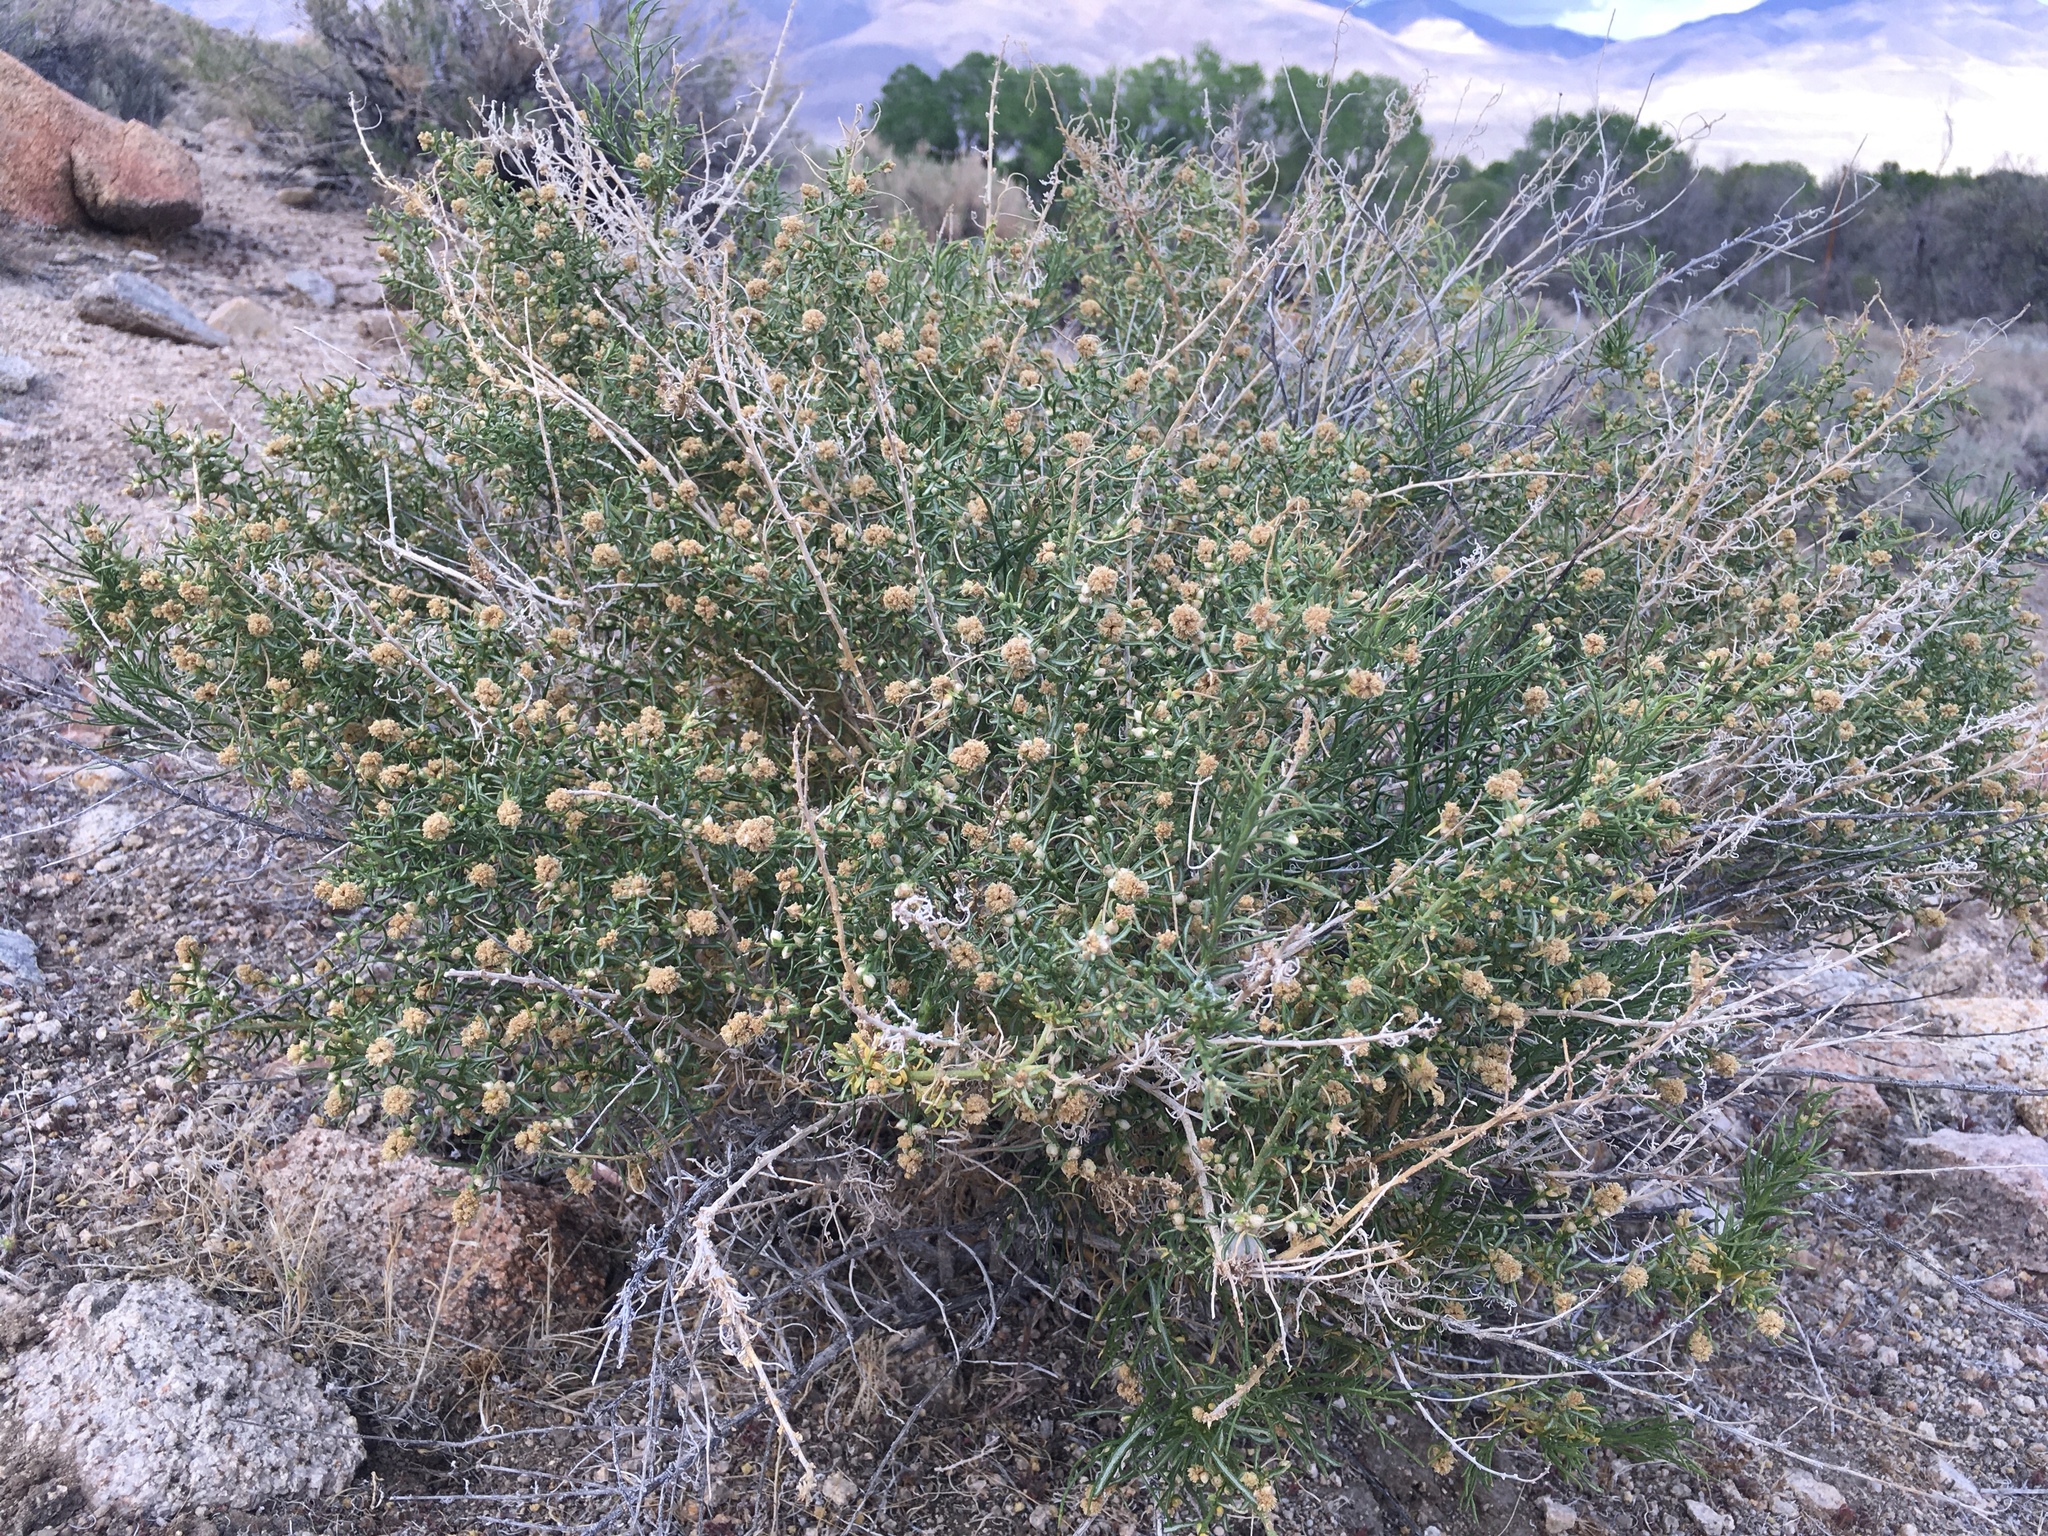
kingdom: Plantae
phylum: Tracheophyta
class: Magnoliopsida
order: Asterales
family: Asteraceae
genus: Ambrosia
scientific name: Ambrosia salsola
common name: Burrobrush
